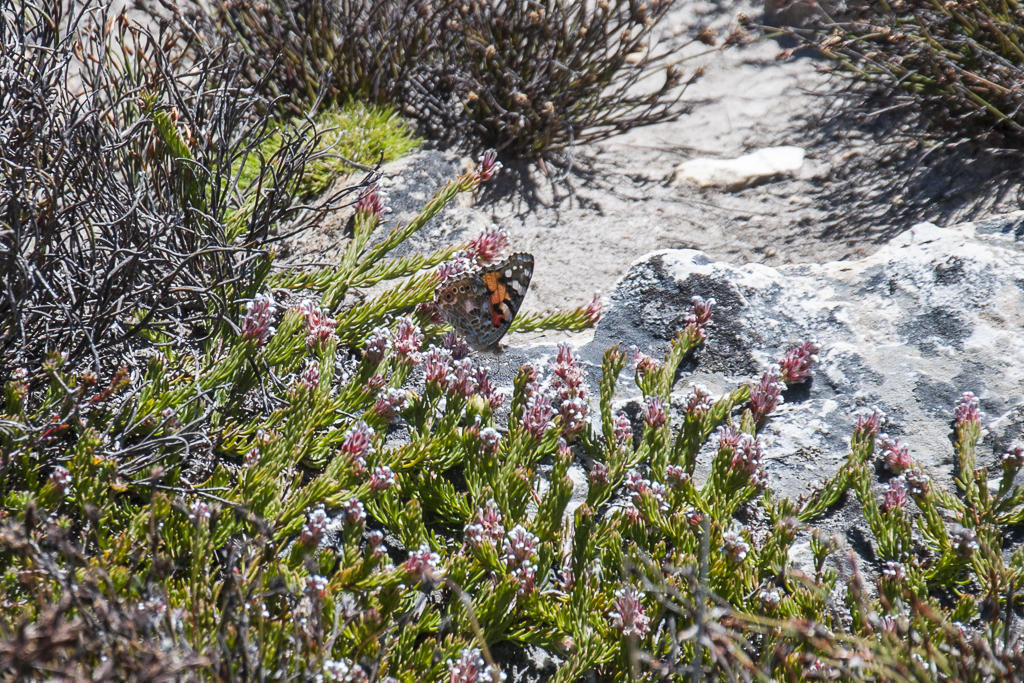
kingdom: Animalia
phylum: Arthropoda
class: Insecta
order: Lepidoptera
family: Nymphalidae
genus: Vanessa
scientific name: Vanessa cardui
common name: Painted lady
